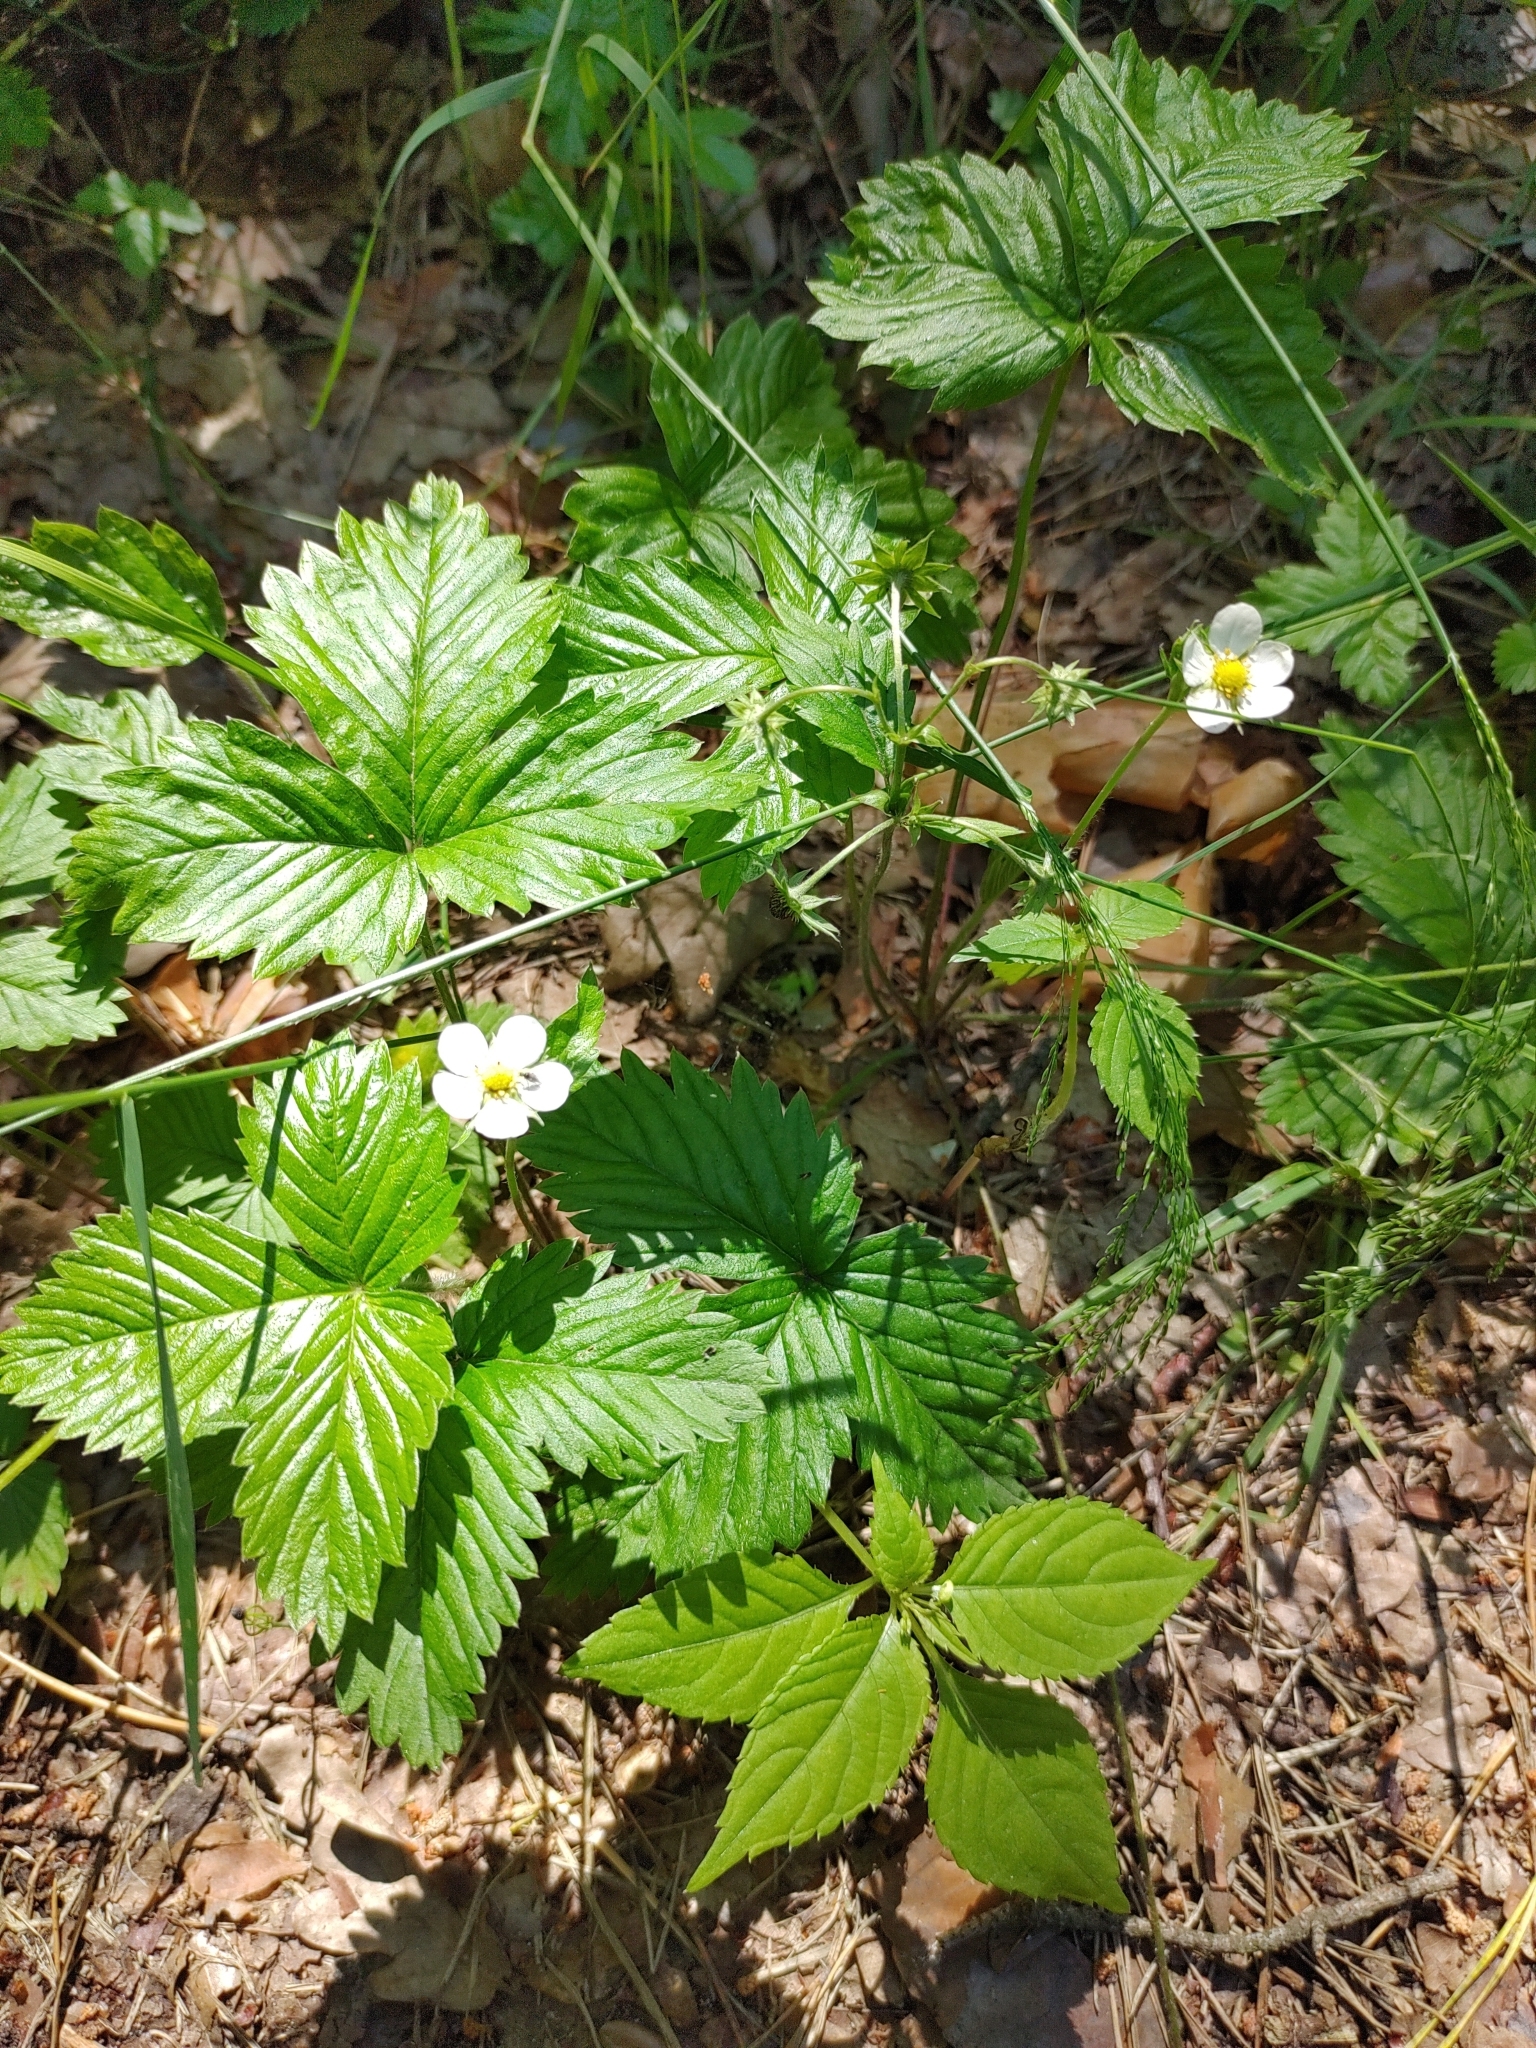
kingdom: Plantae
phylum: Tracheophyta
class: Magnoliopsida
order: Rosales
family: Rosaceae
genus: Fragaria
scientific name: Fragaria vesca
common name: Wild strawberry
